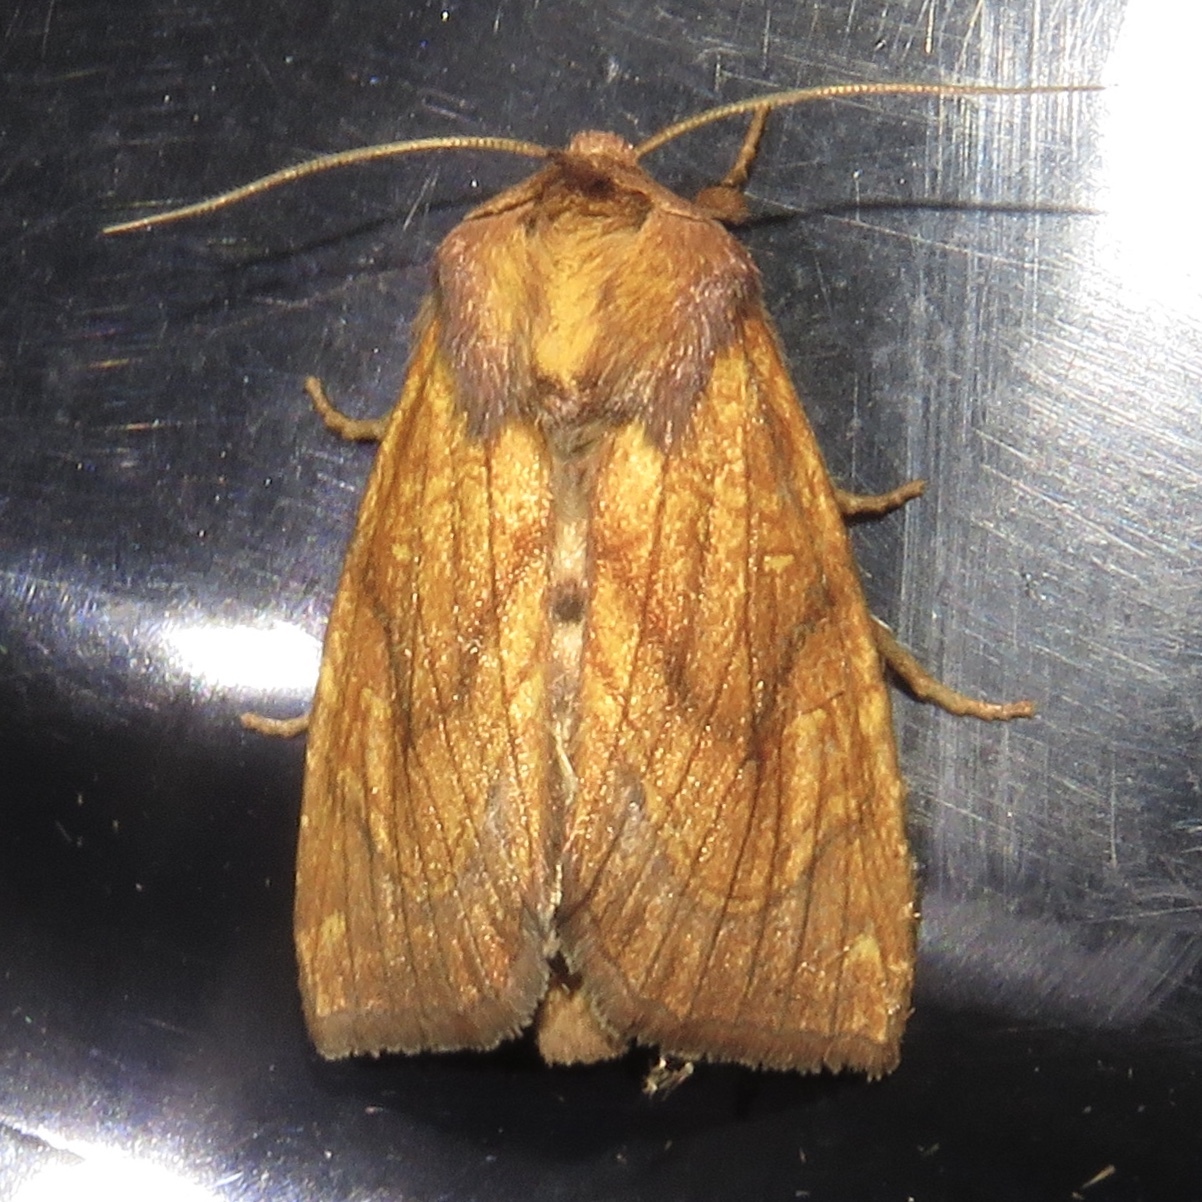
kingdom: Animalia
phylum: Arthropoda
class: Insecta
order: Lepidoptera
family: Noctuidae
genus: Papaipema
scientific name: Papaipema inquaesita
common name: Sensitive fern borer moth
